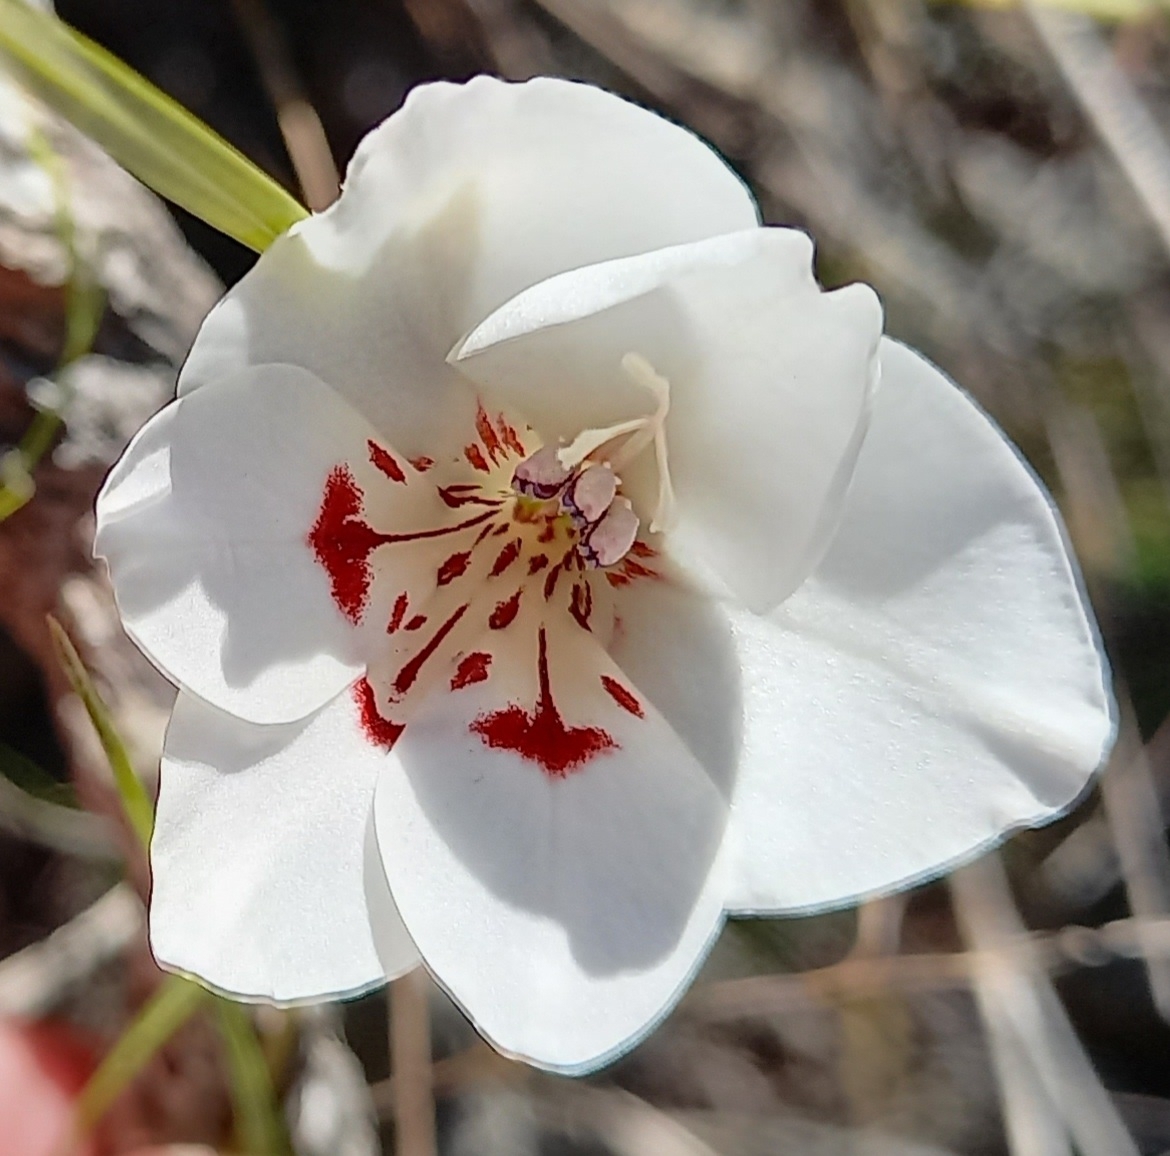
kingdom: Plantae
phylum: Tracheophyta
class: Liliopsida
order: Asparagales
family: Iridaceae
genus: Gladiolus
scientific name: Gladiolus debilis
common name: Painted-lady
